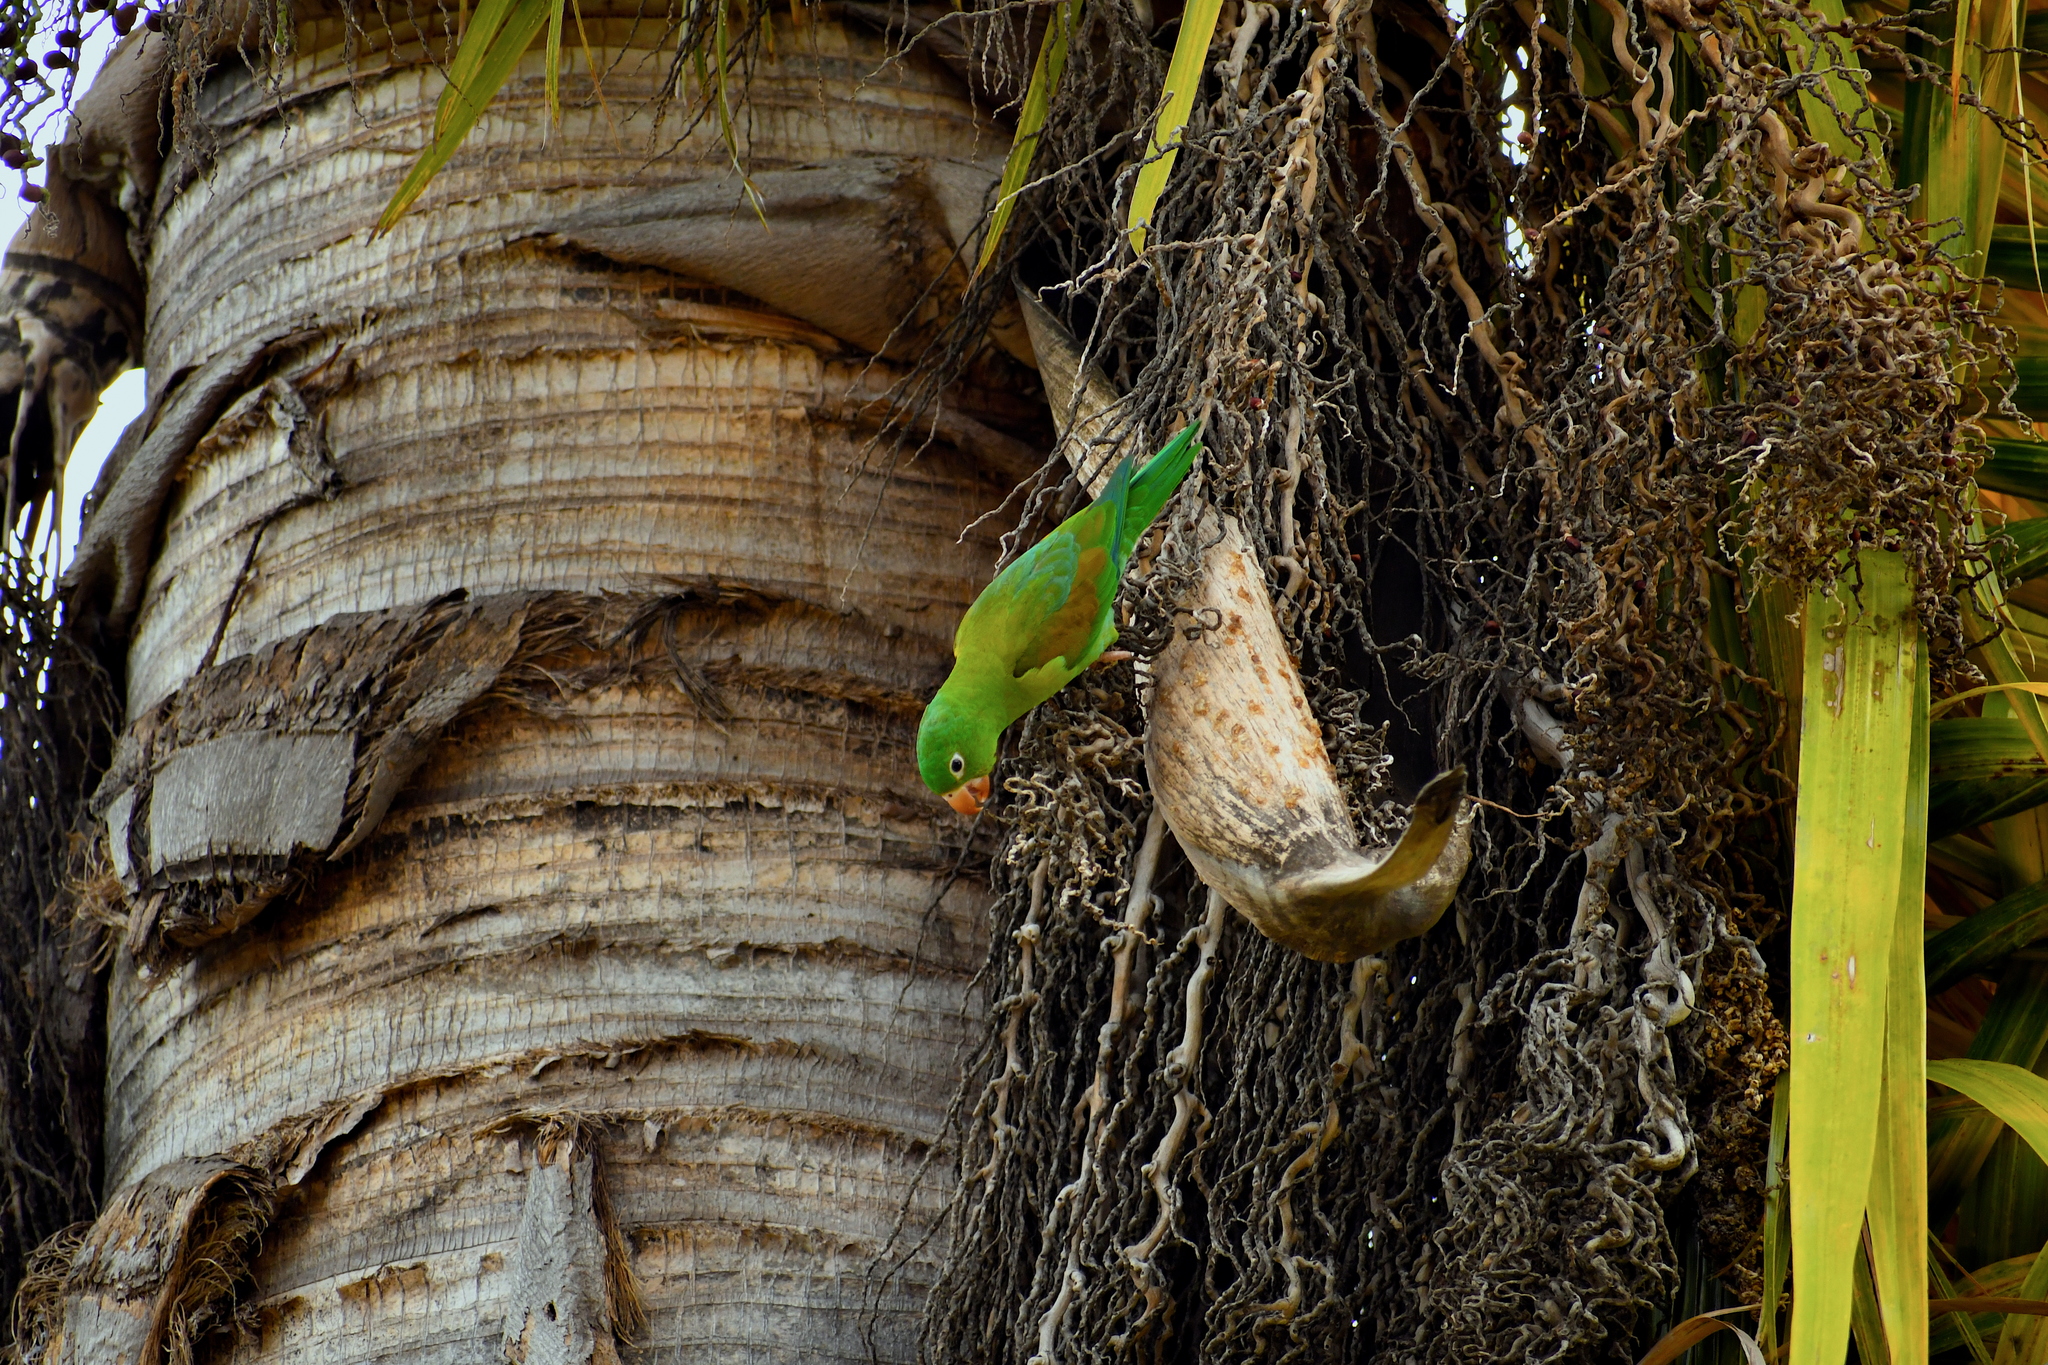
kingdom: Animalia
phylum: Chordata
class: Aves
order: Psittaciformes
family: Psittacidae
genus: Brotogeris
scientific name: Brotogeris jugularis
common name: Orange-chinned parakeet
